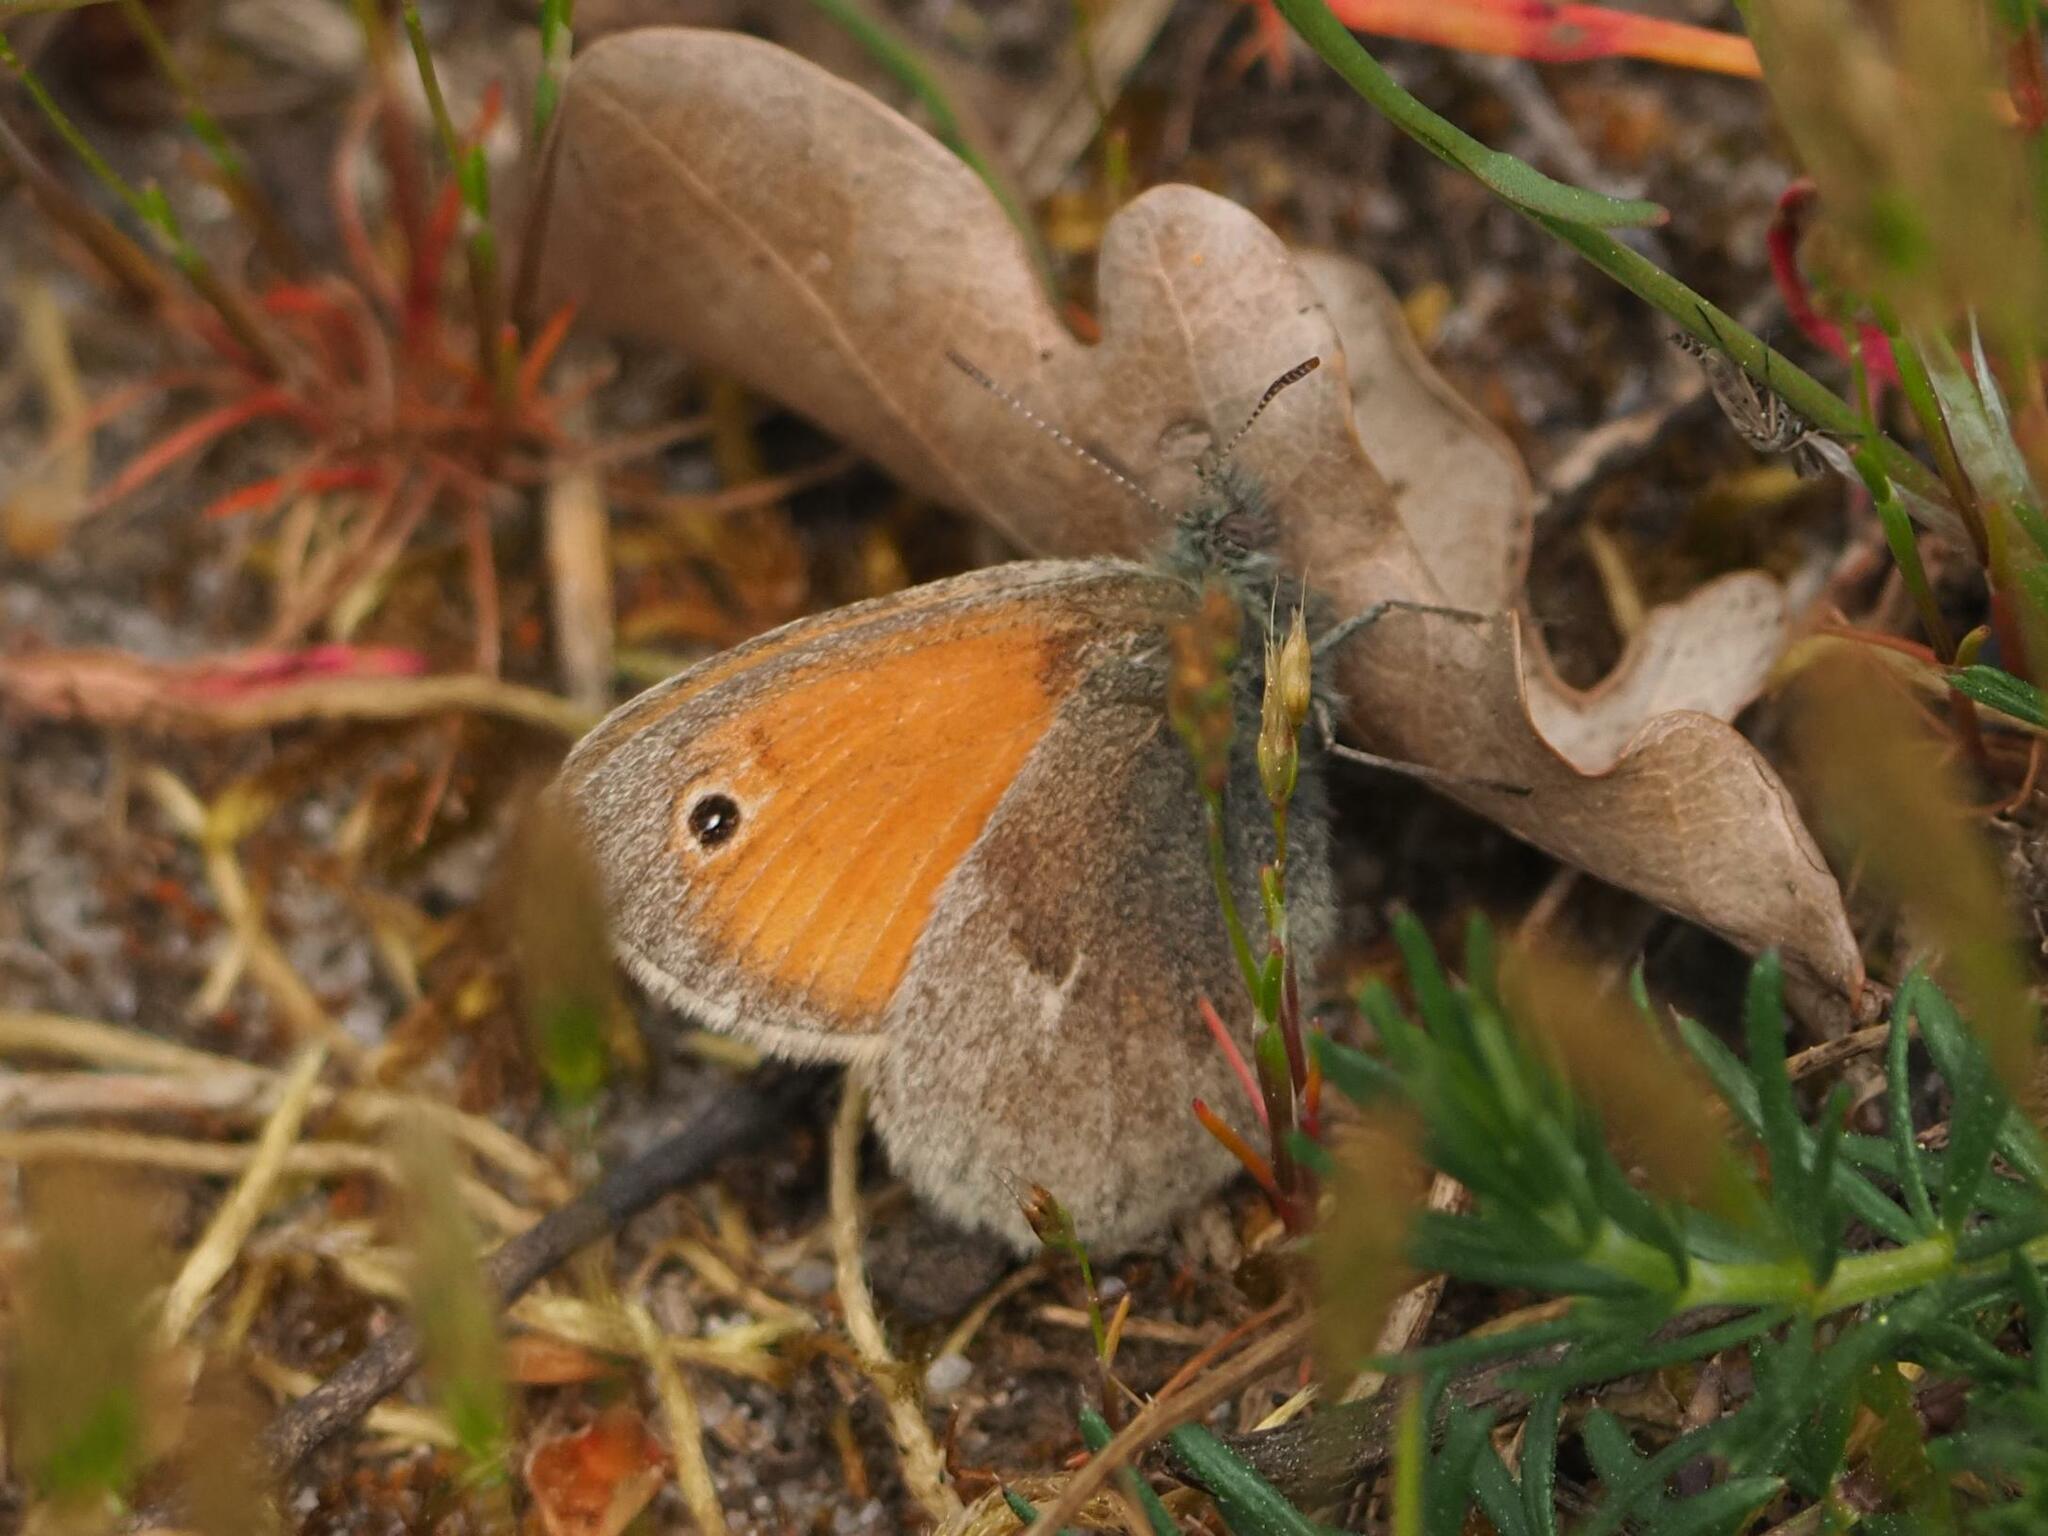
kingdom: Animalia
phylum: Arthropoda
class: Insecta
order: Lepidoptera
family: Nymphalidae
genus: Coenonympha
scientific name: Coenonympha pamphilus
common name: Small heath
